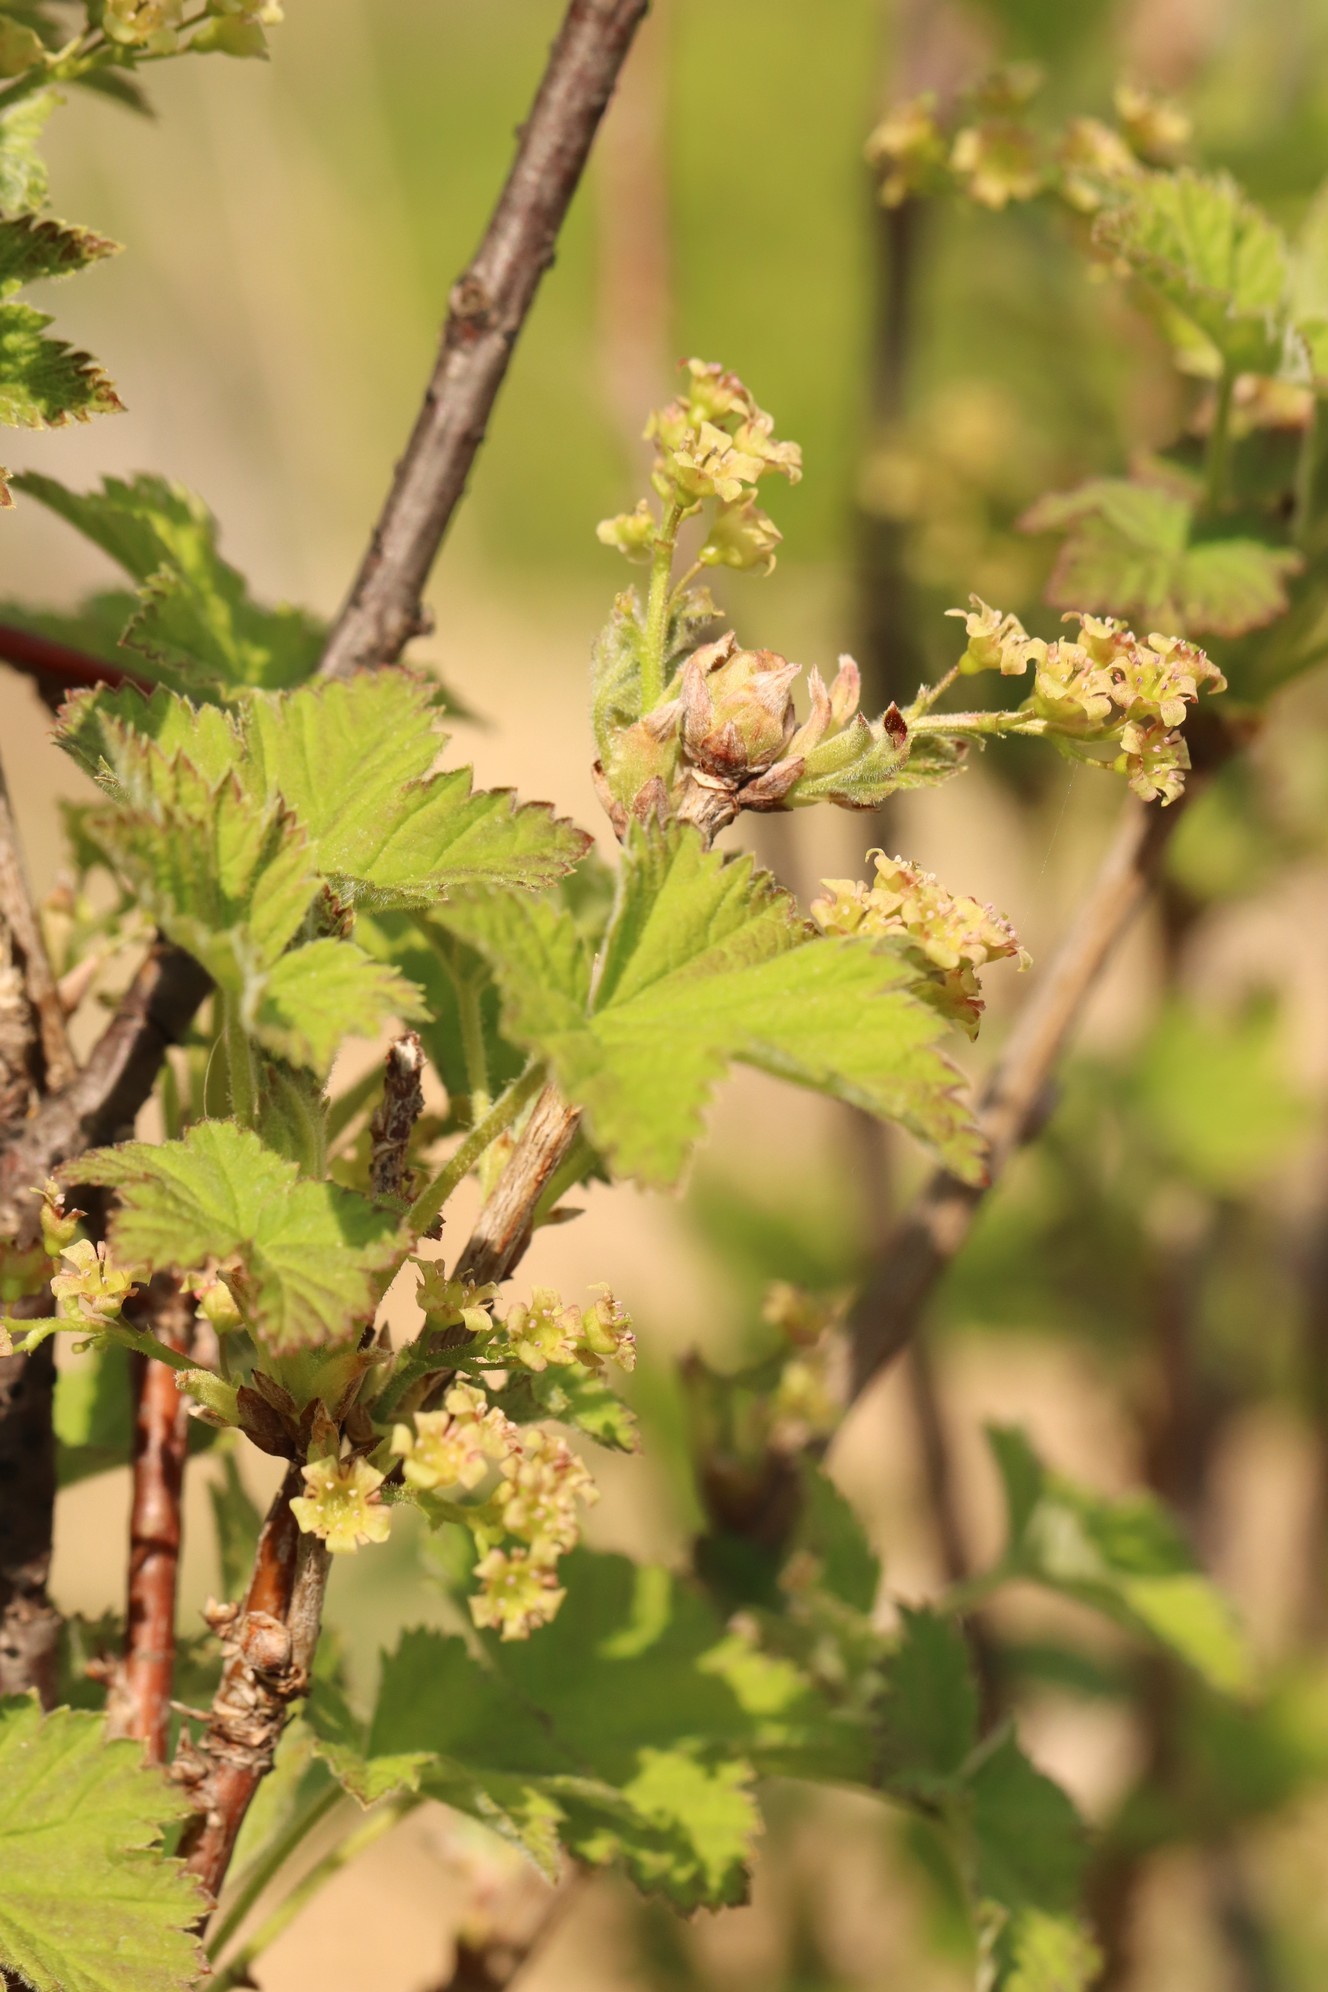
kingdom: Plantae
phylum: Tracheophyta
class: Magnoliopsida
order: Saxifragales
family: Grossulariaceae
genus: Ribes
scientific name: Ribes spicatum
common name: Downy currant
